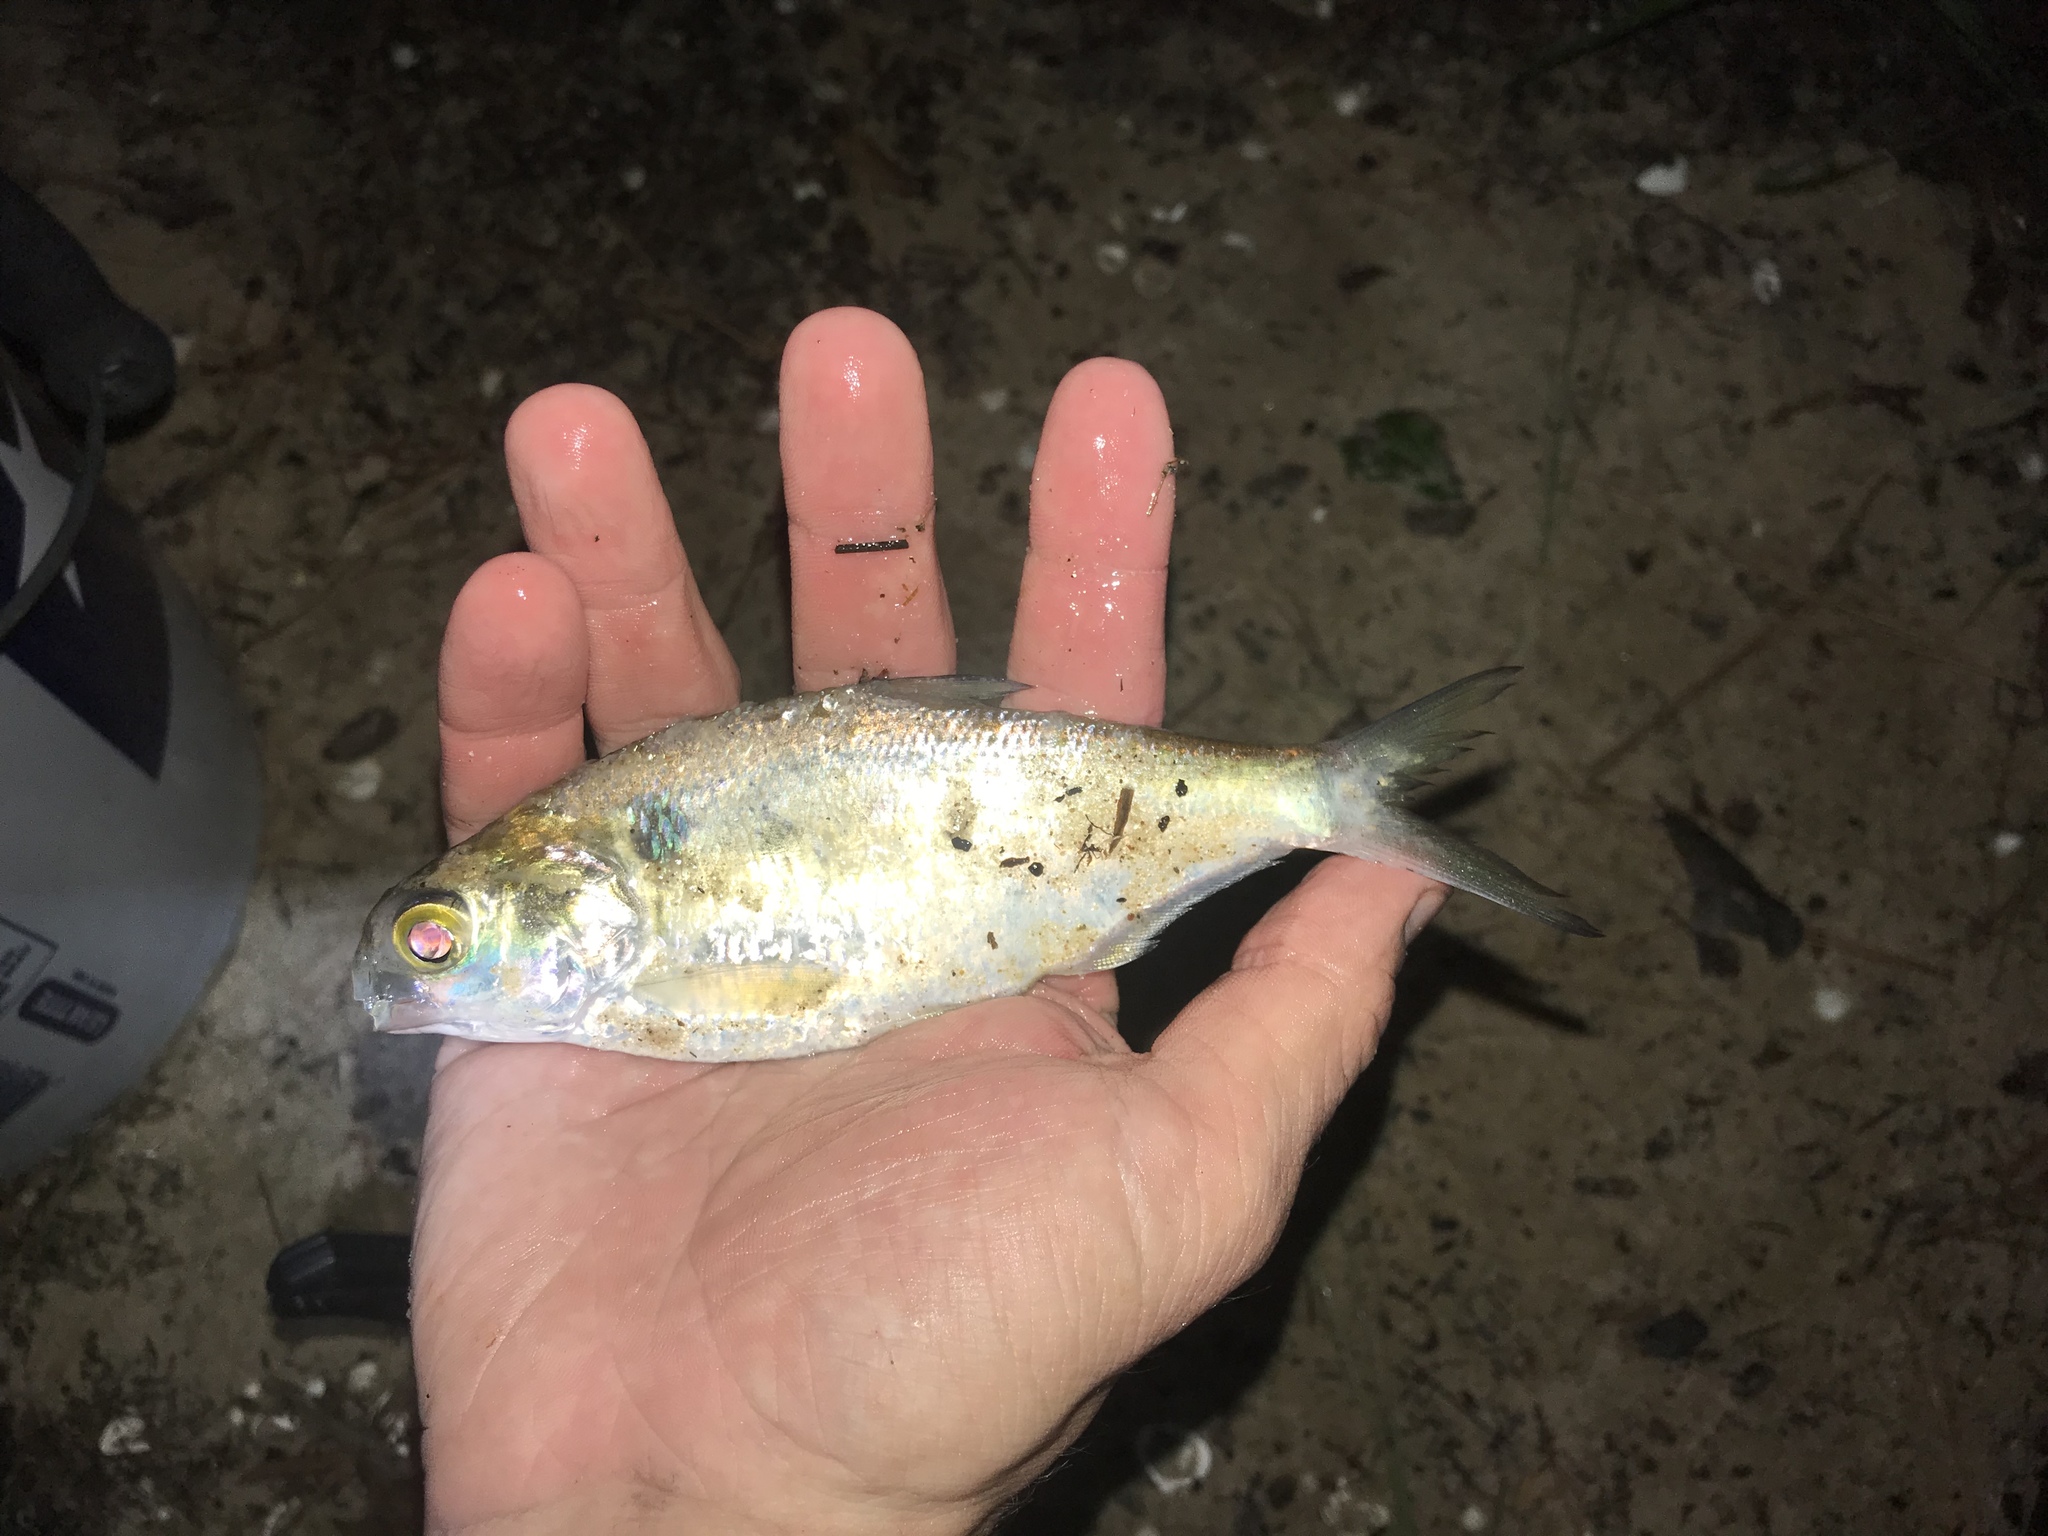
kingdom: Animalia
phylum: Chordata
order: Clupeiformes
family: Clupeidae
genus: Dorosoma
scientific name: Dorosoma cepedianum
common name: Gizzard shad
